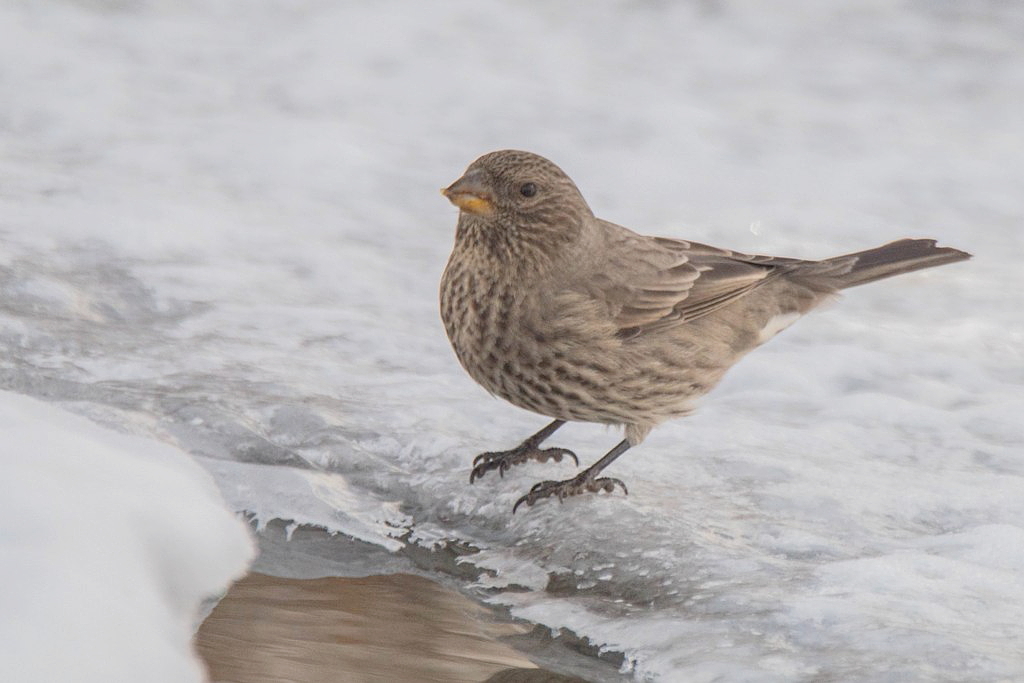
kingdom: Animalia
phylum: Chordata
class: Aves
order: Passeriformes
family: Fringillidae
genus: Carpodacus
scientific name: Carpodacus rubicilla
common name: Great rosefinch
